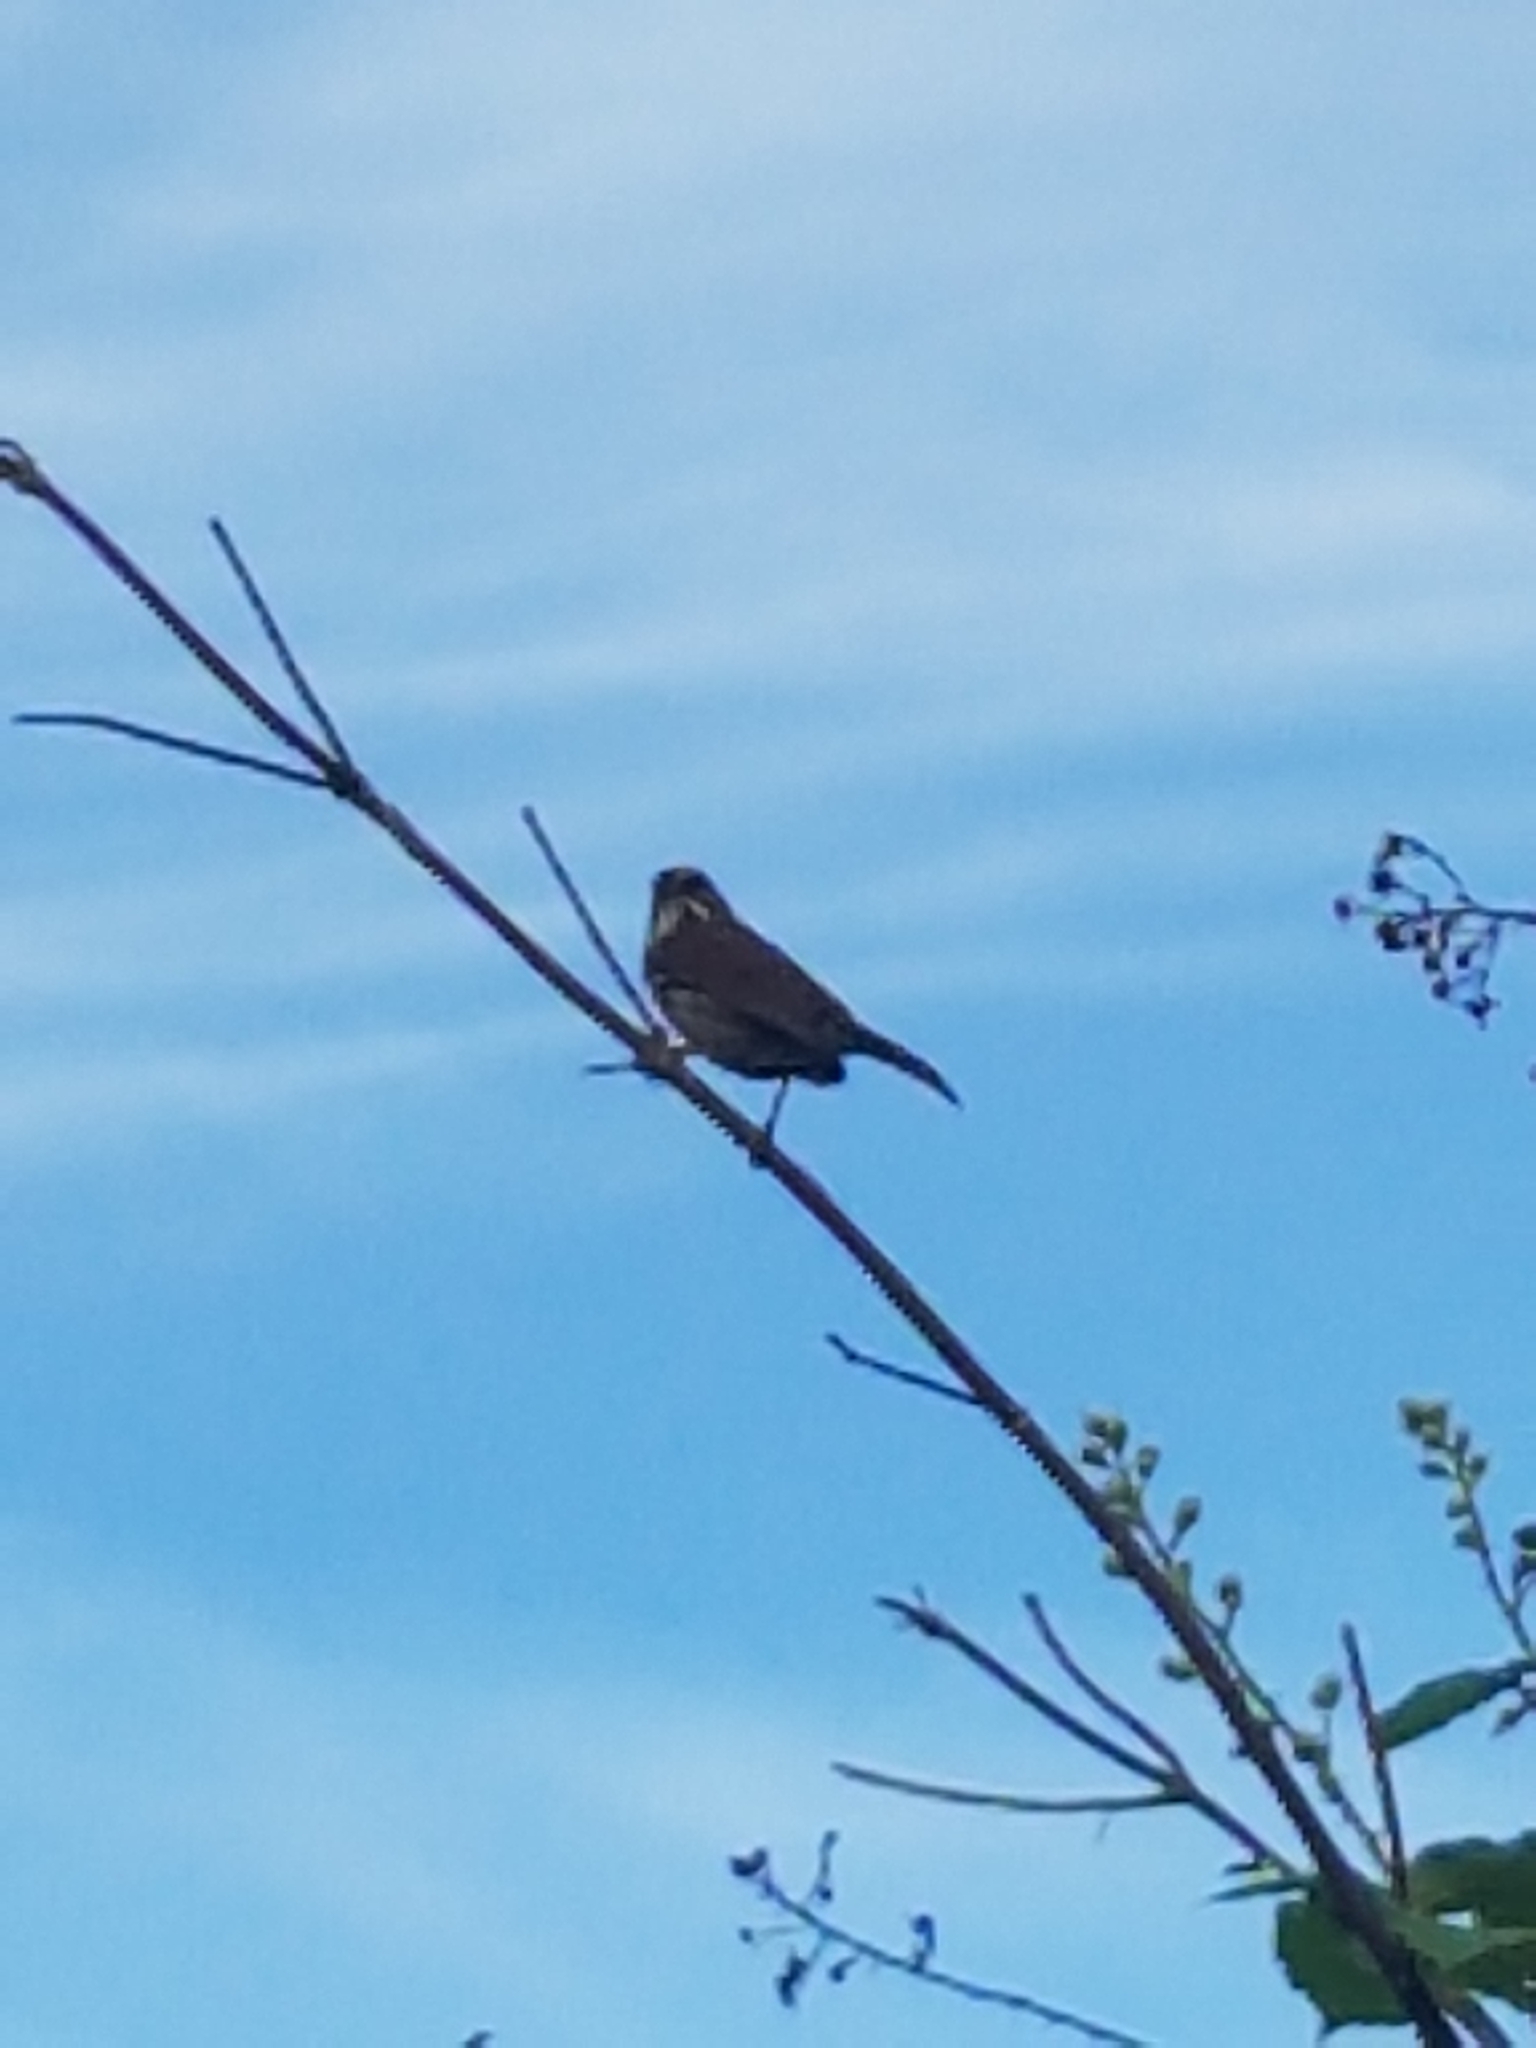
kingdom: Animalia
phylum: Chordata
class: Aves
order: Passeriformes
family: Passerellidae
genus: Melospiza
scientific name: Melospiza melodia
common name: Song sparrow
